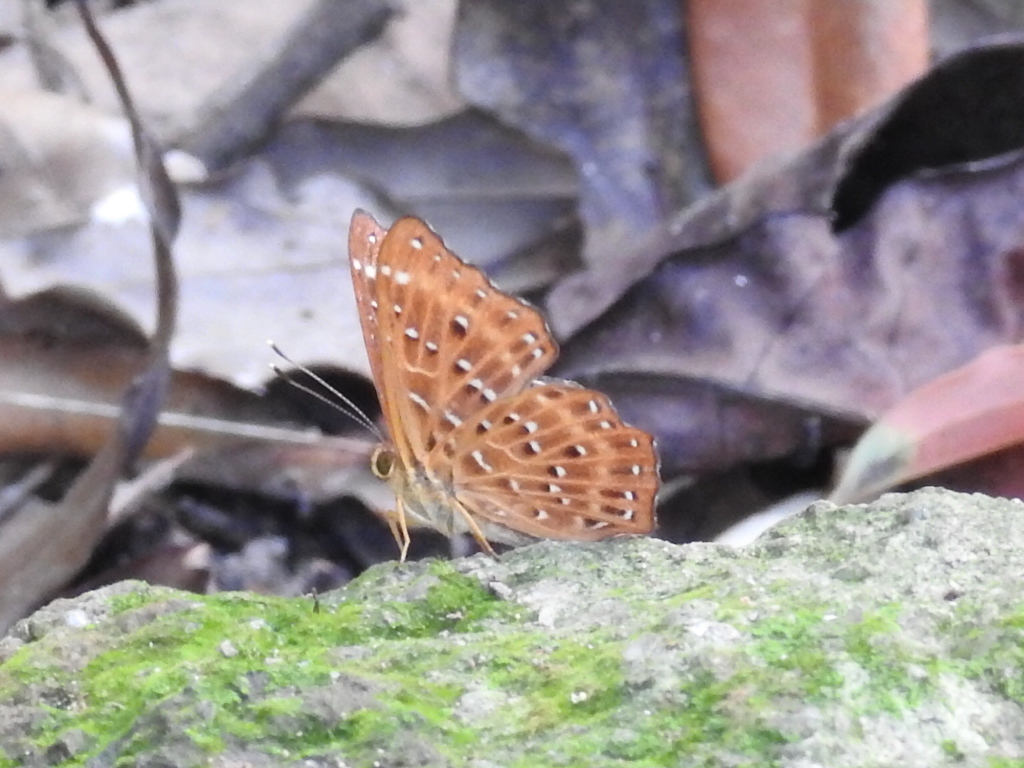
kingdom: Animalia
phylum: Arthropoda
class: Insecta
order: Lepidoptera
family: Riodinidae
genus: Zemeros
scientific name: Zemeros flegyas
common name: Punchinello
